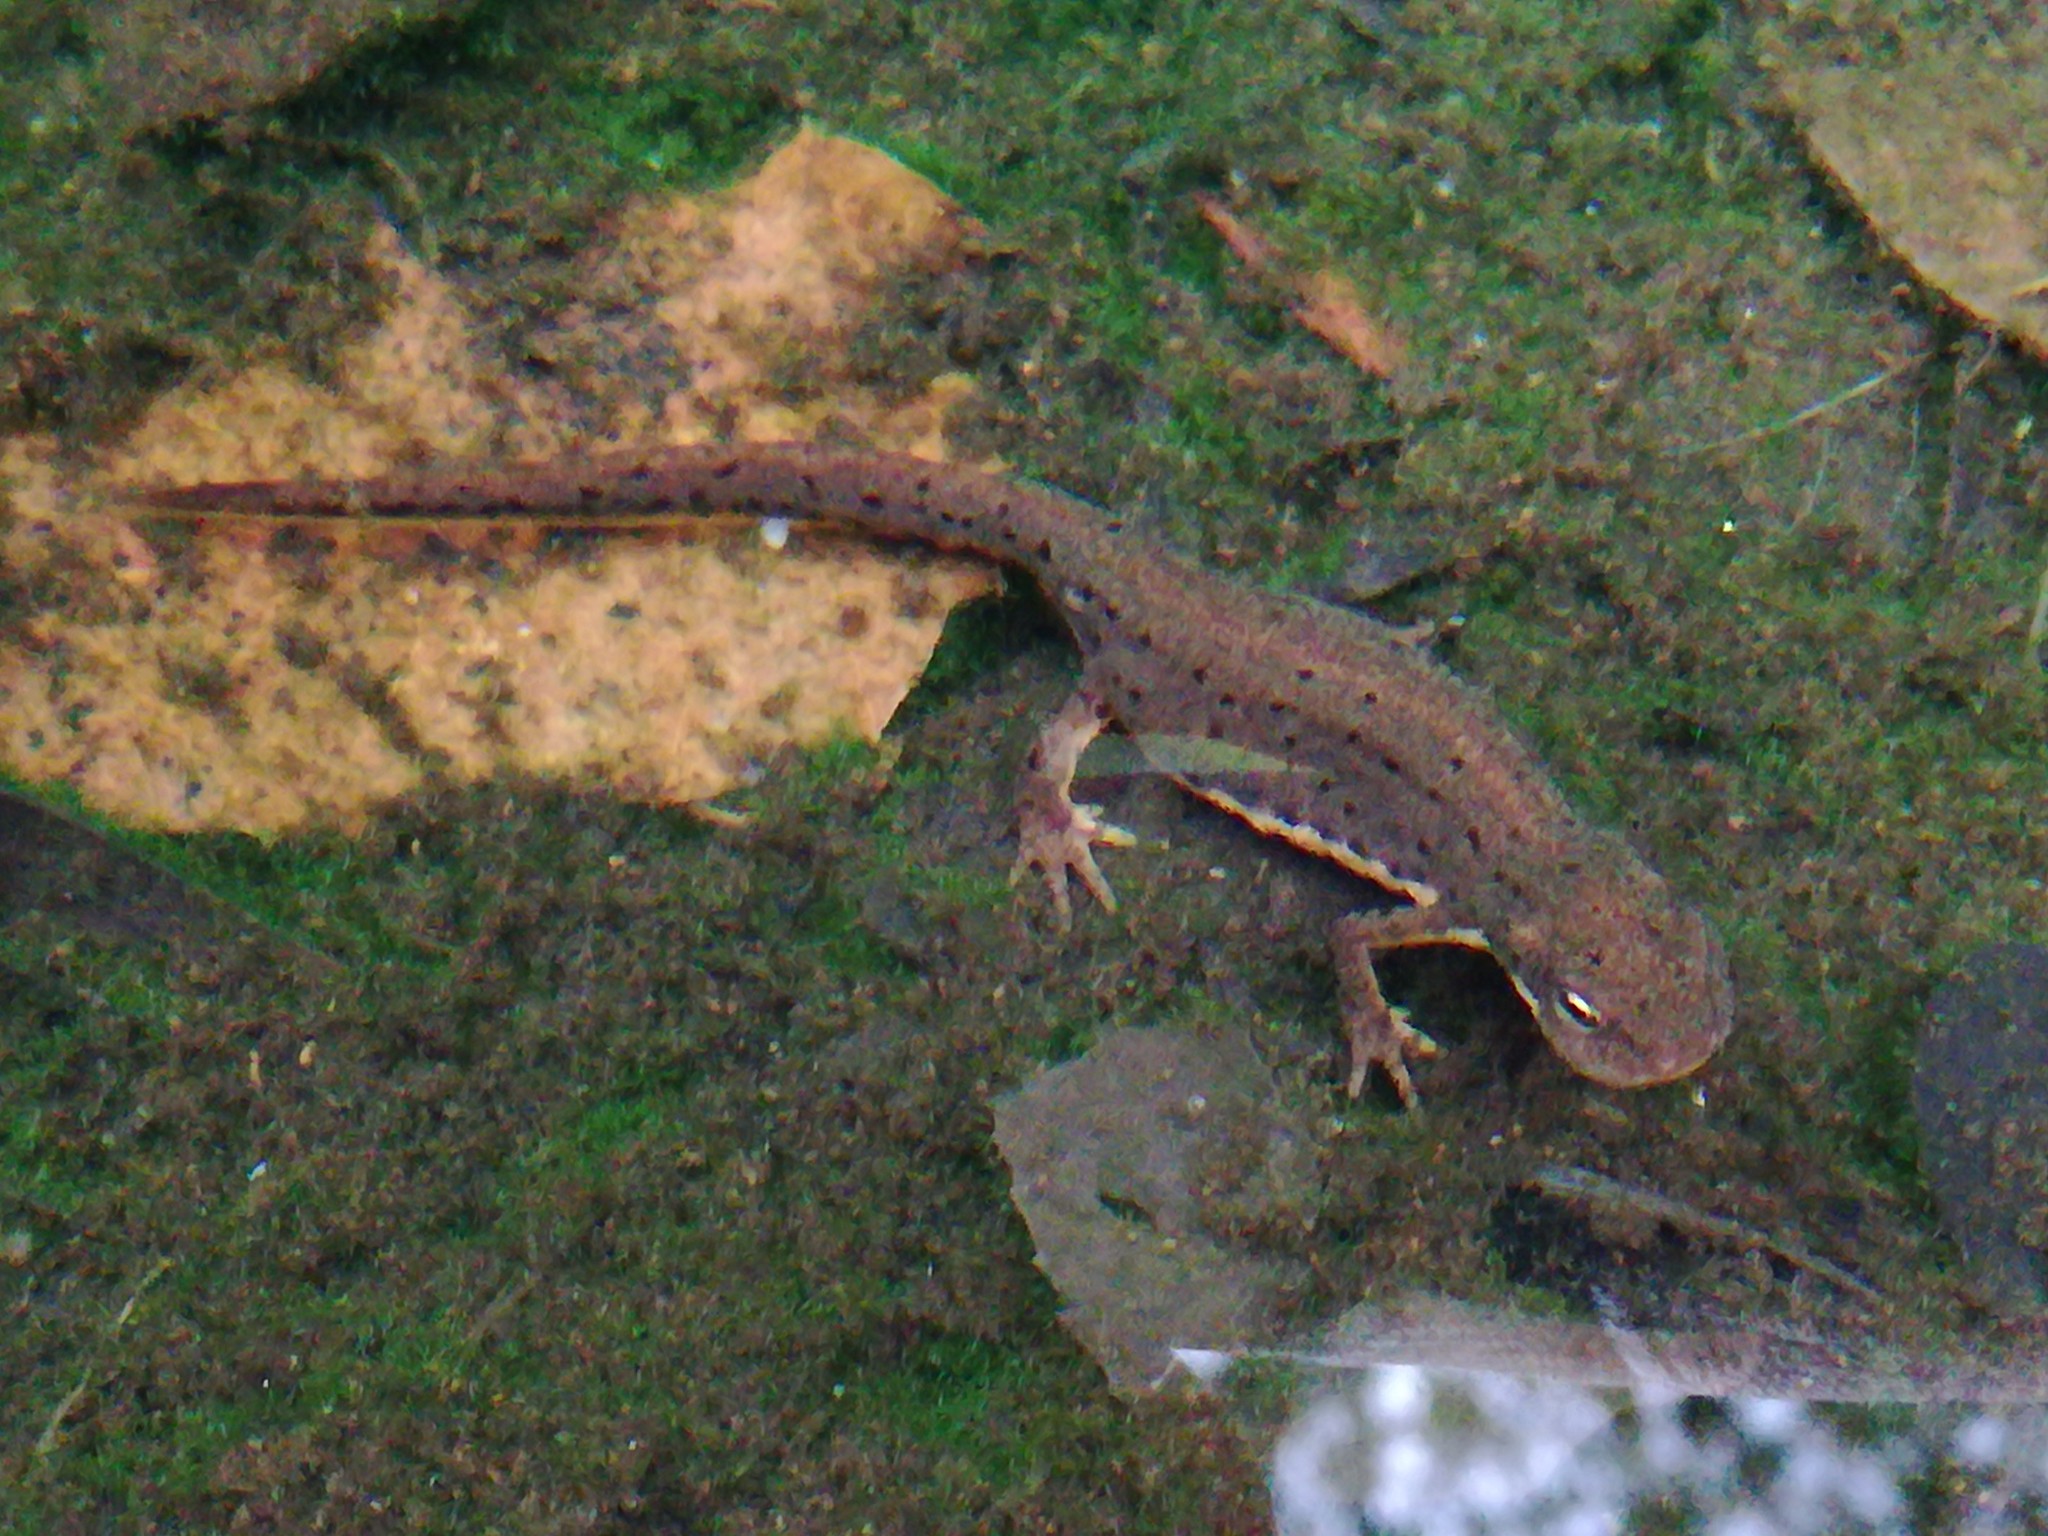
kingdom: Animalia
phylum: Chordata
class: Amphibia
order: Caudata
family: Salamandridae
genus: Lissotriton
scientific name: Lissotriton boscai
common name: Bosca's newt
